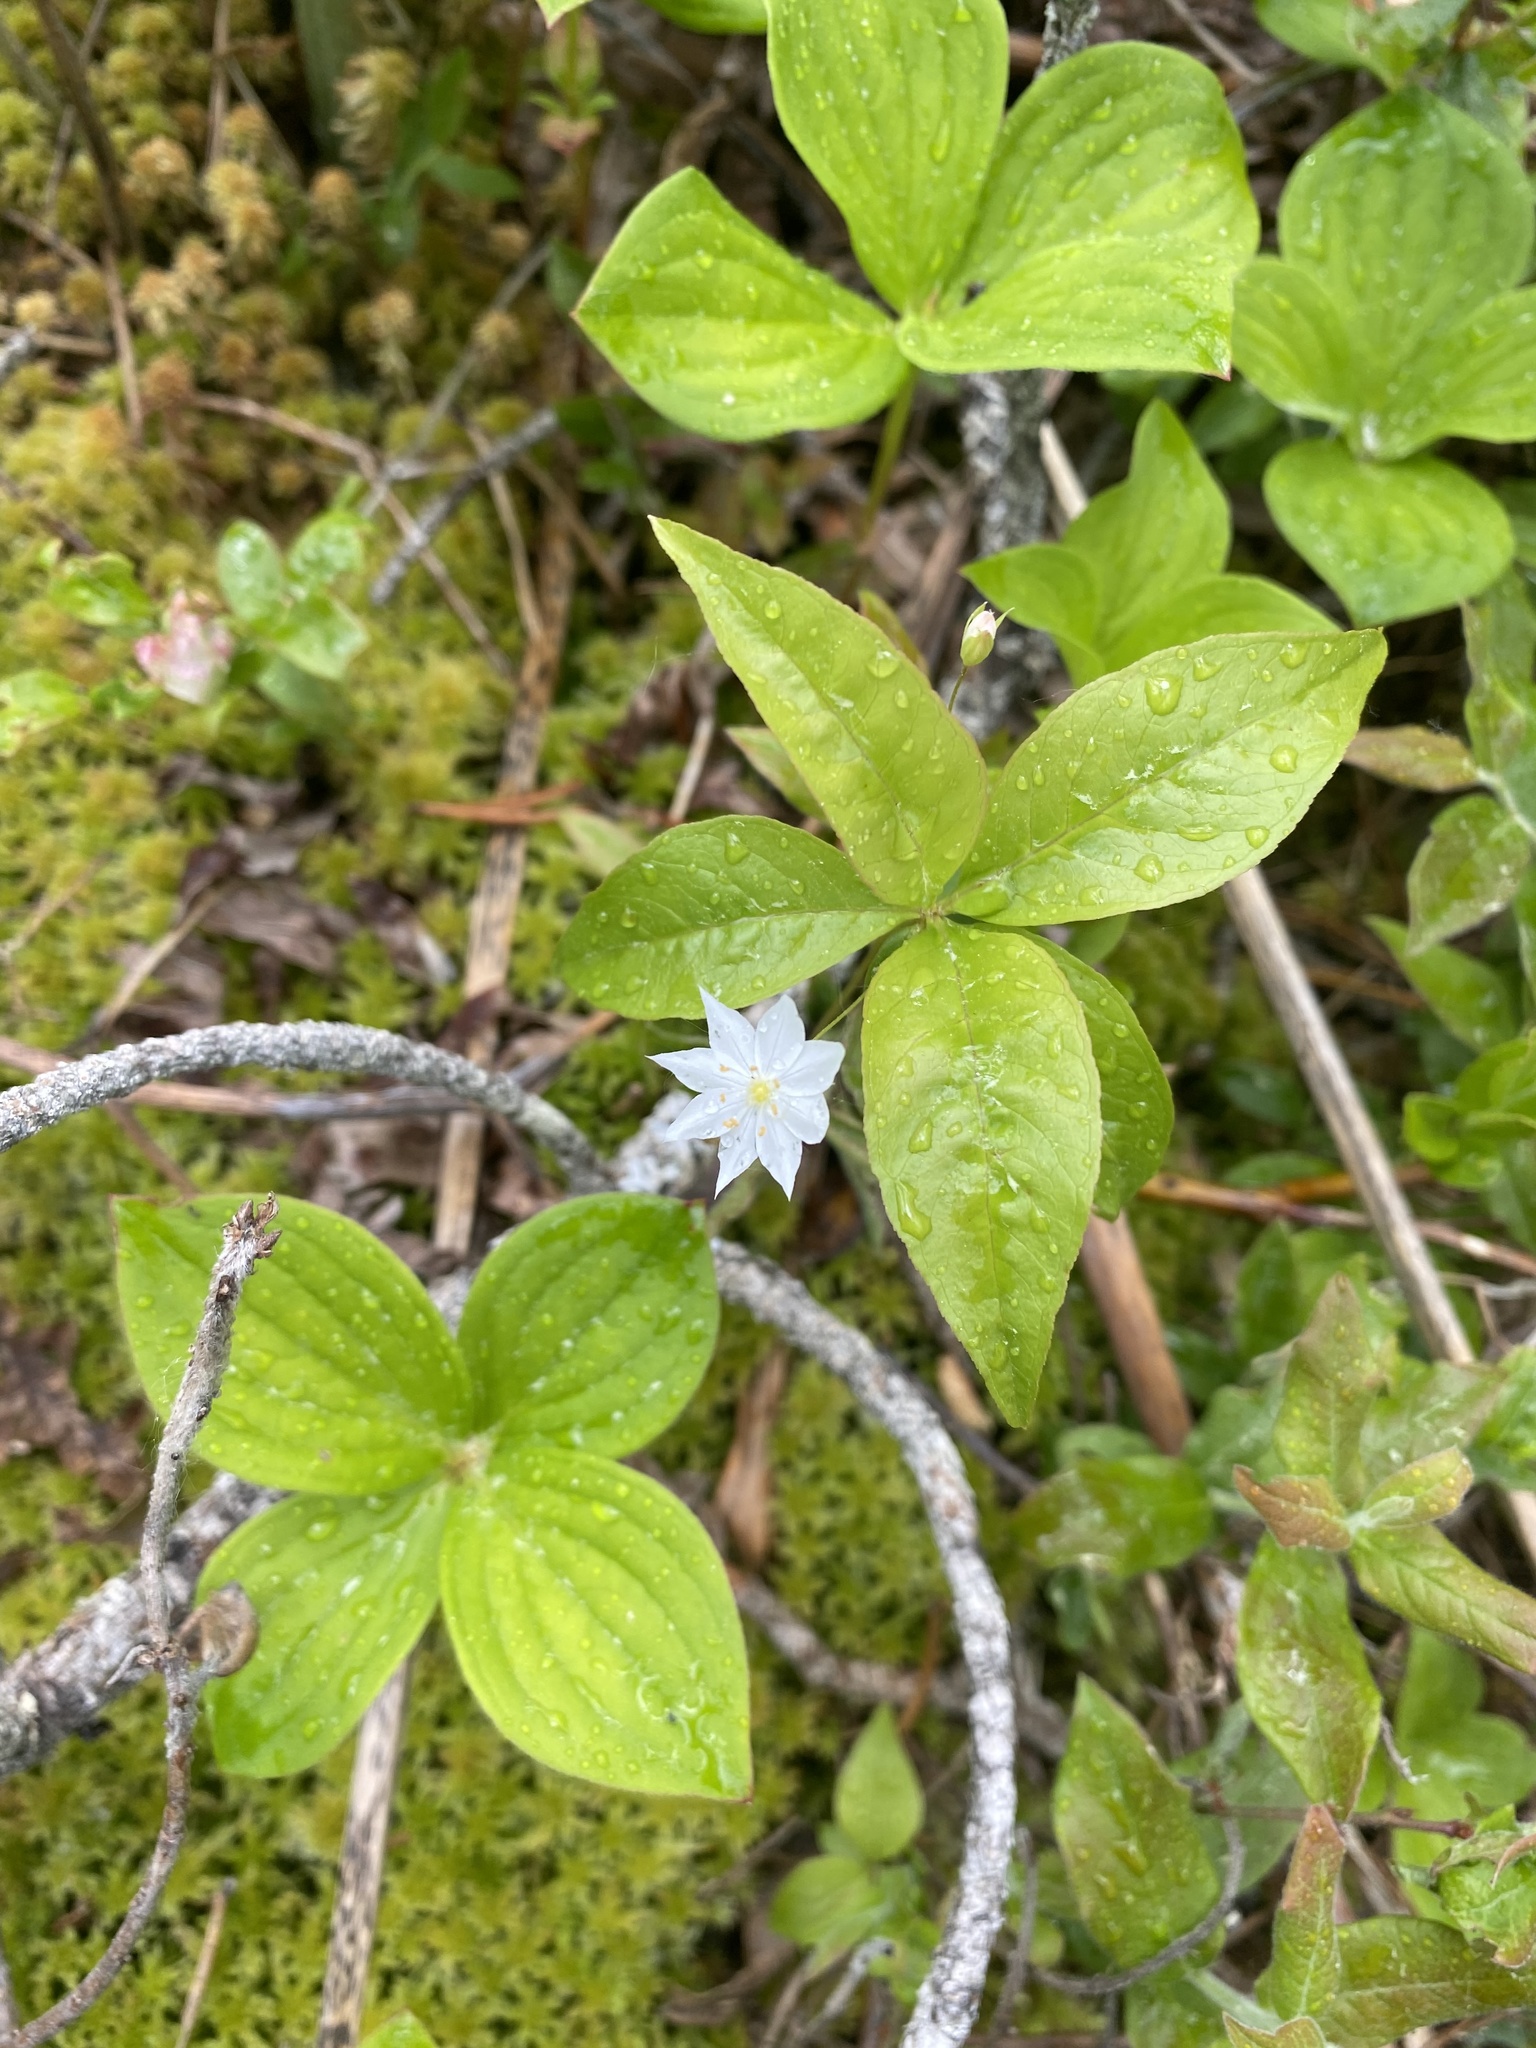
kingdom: Plantae
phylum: Tracheophyta
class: Magnoliopsida
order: Ericales
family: Primulaceae
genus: Lysimachia
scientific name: Lysimachia borealis
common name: American starflower
